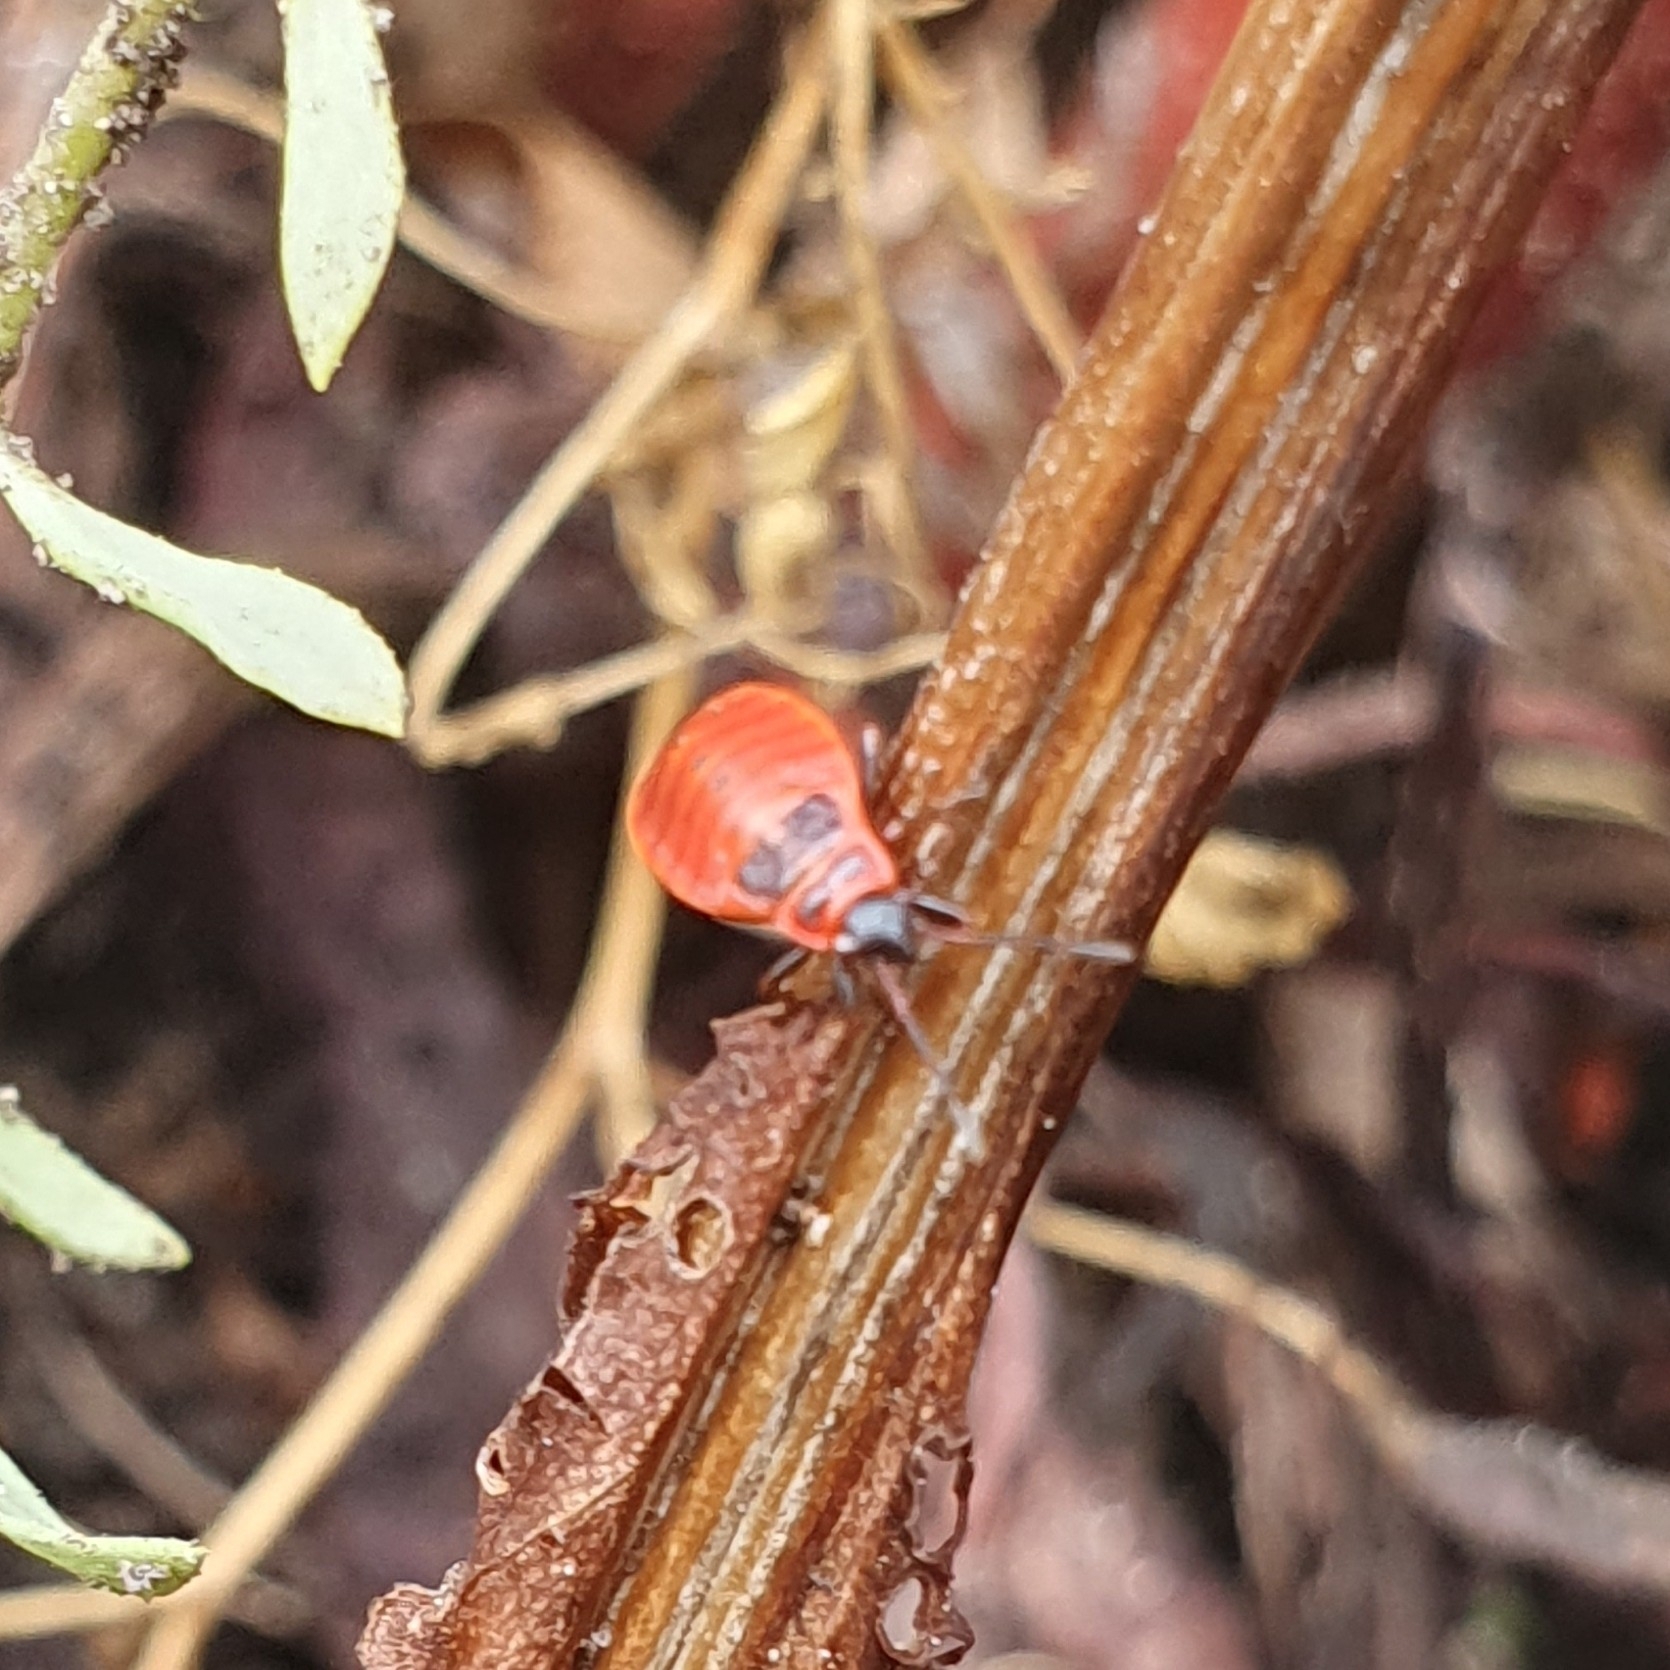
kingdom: Animalia
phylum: Arthropoda
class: Insecta
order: Hemiptera
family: Pyrrhocoridae
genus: Pyrrhocoris
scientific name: Pyrrhocoris apterus
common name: Firebug
